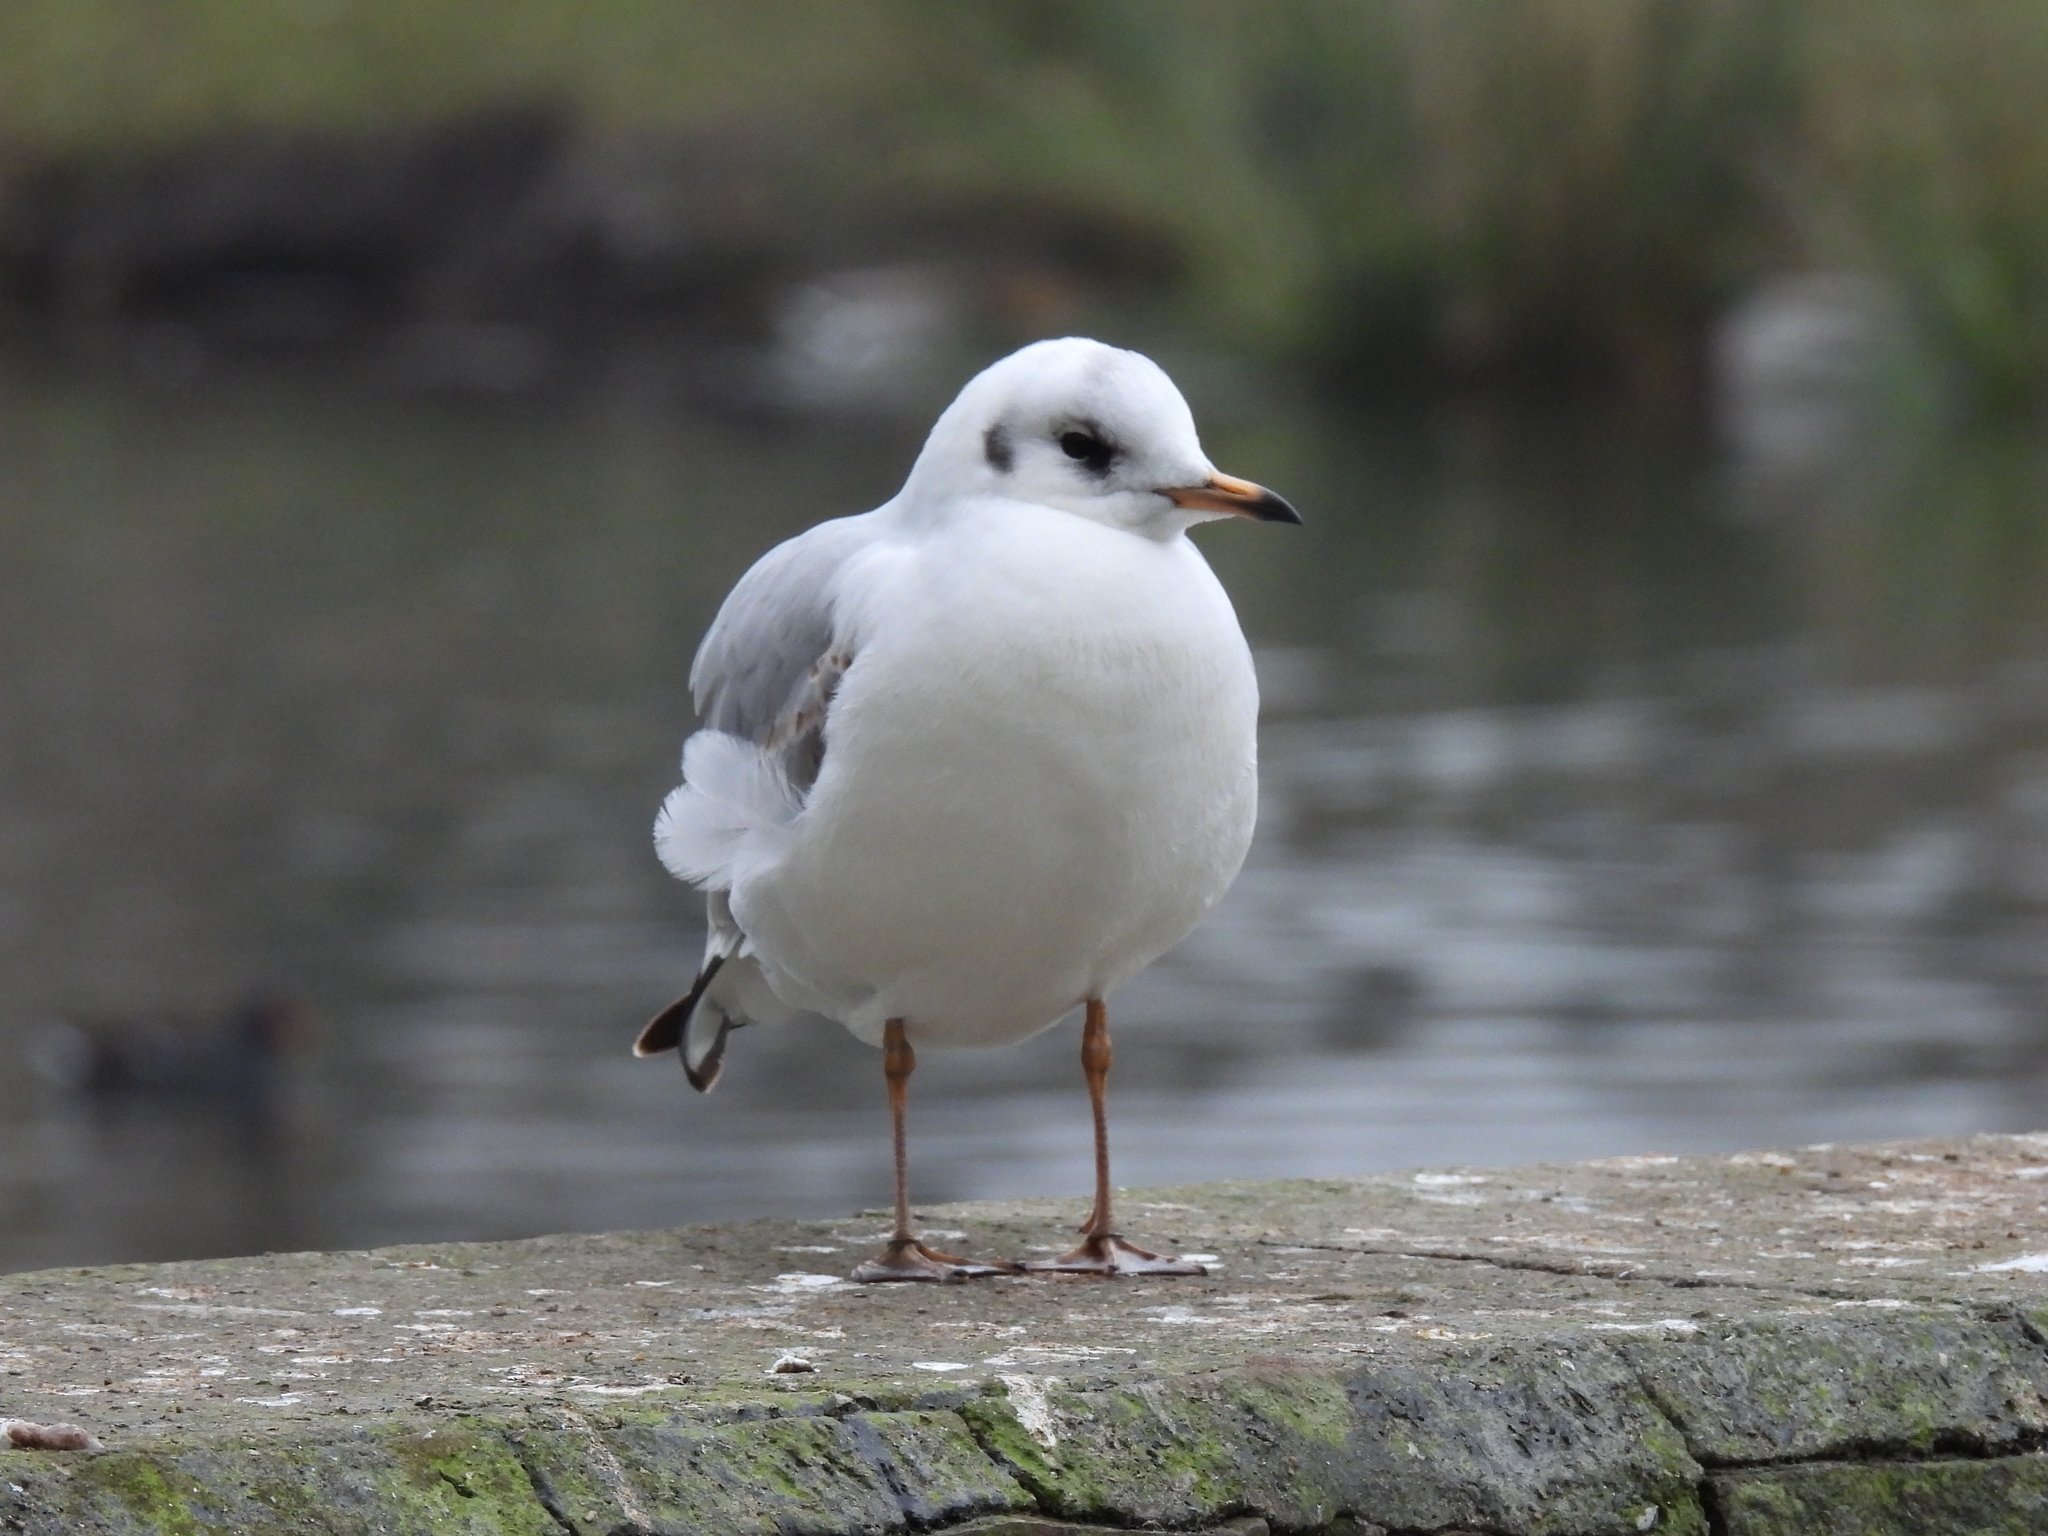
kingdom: Animalia
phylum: Chordata
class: Aves
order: Charadriiformes
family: Laridae
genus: Chroicocephalus
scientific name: Chroicocephalus ridibundus
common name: Black-headed gull
